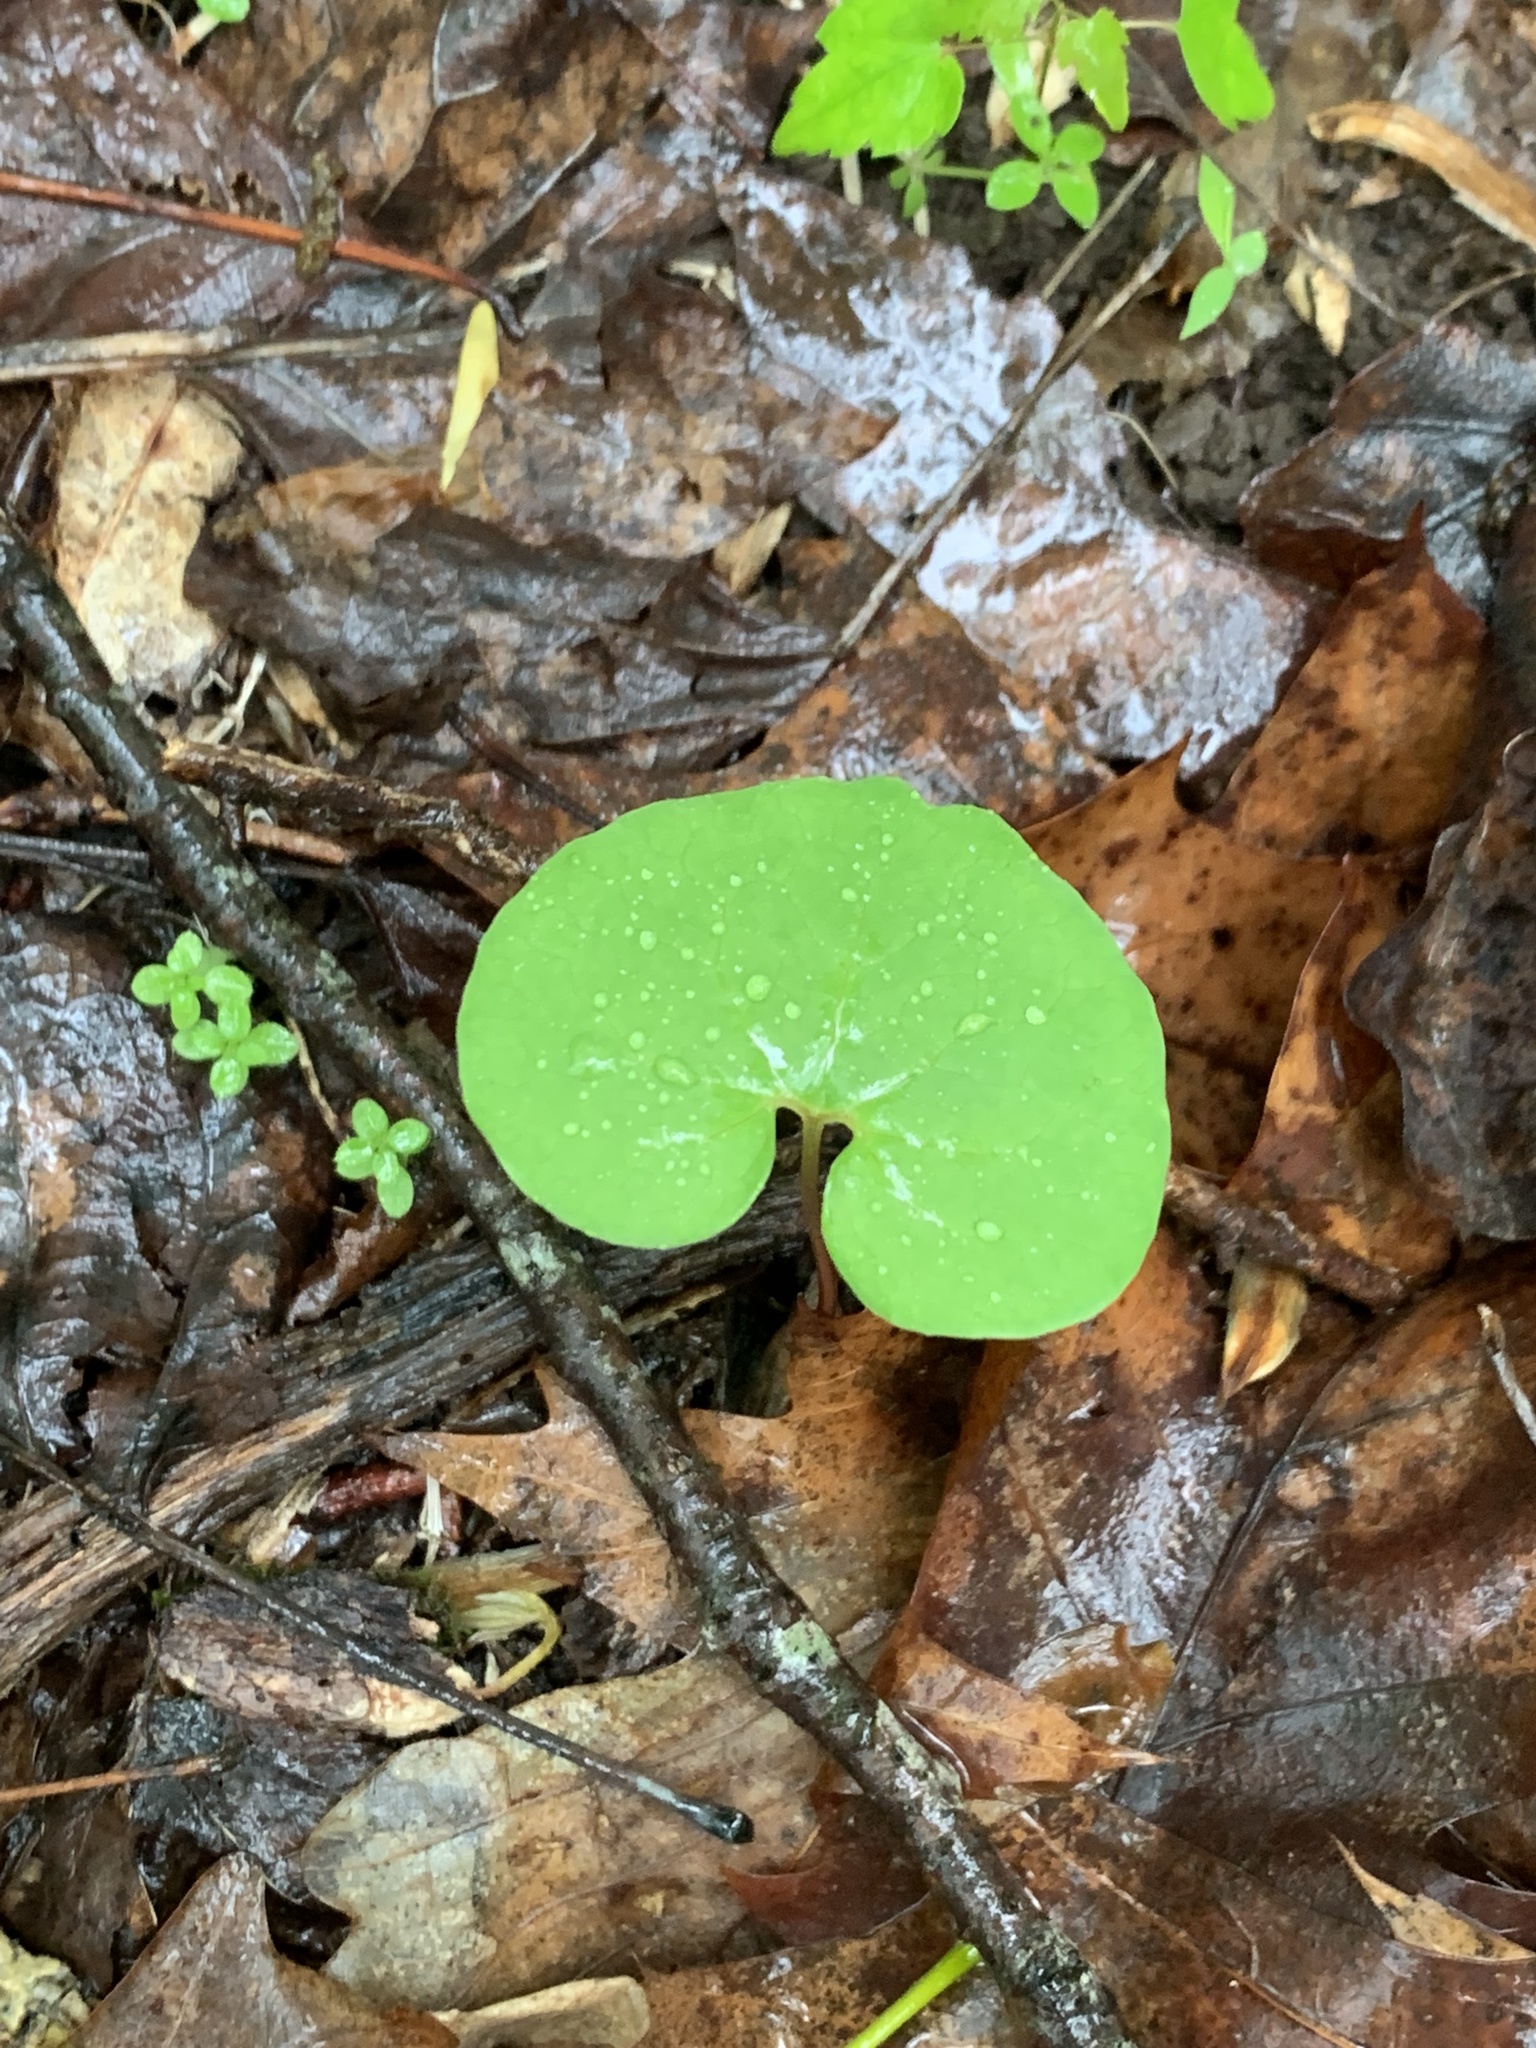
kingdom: Plantae
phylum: Tracheophyta
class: Magnoliopsida
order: Piperales
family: Aristolochiaceae
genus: Asarum
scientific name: Asarum canadense
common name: Wild ginger
